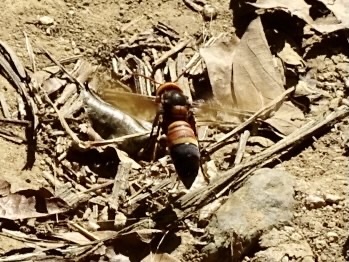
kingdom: Animalia
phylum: Arthropoda
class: Insecta
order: Hymenoptera
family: Vespidae
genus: Vespa
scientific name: Vespa soror
